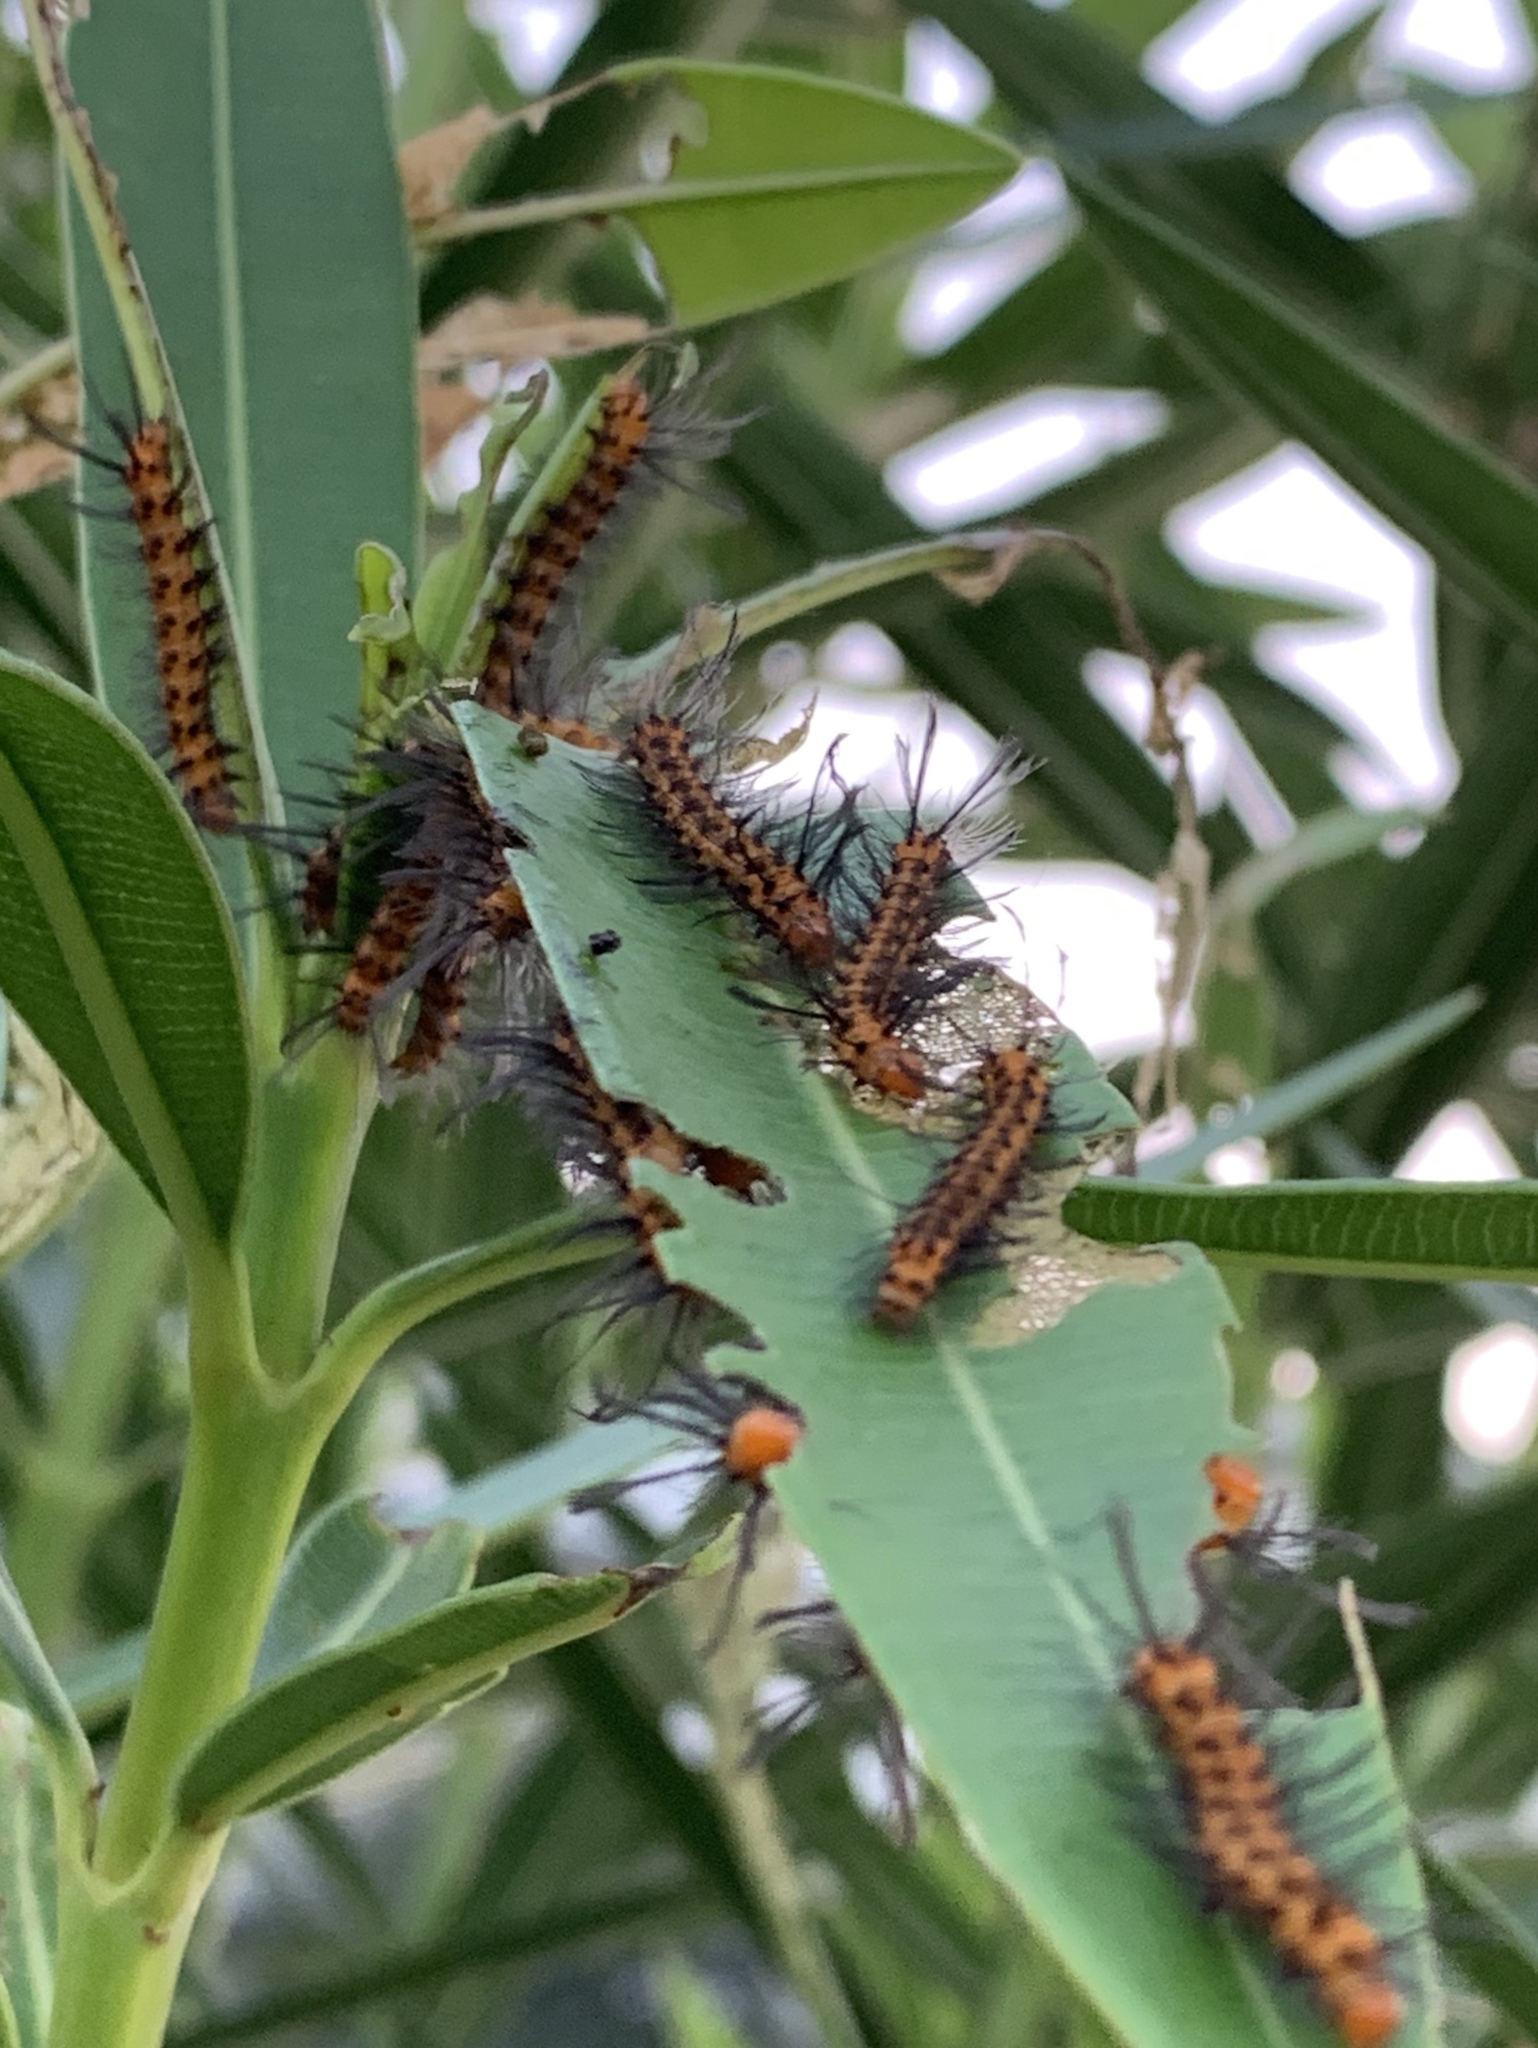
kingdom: Animalia
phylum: Arthropoda
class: Insecta
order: Lepidoptera
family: Erebidae
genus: Syntomeida
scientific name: Syntomeida epilais
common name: Polka-dot wasp moth
